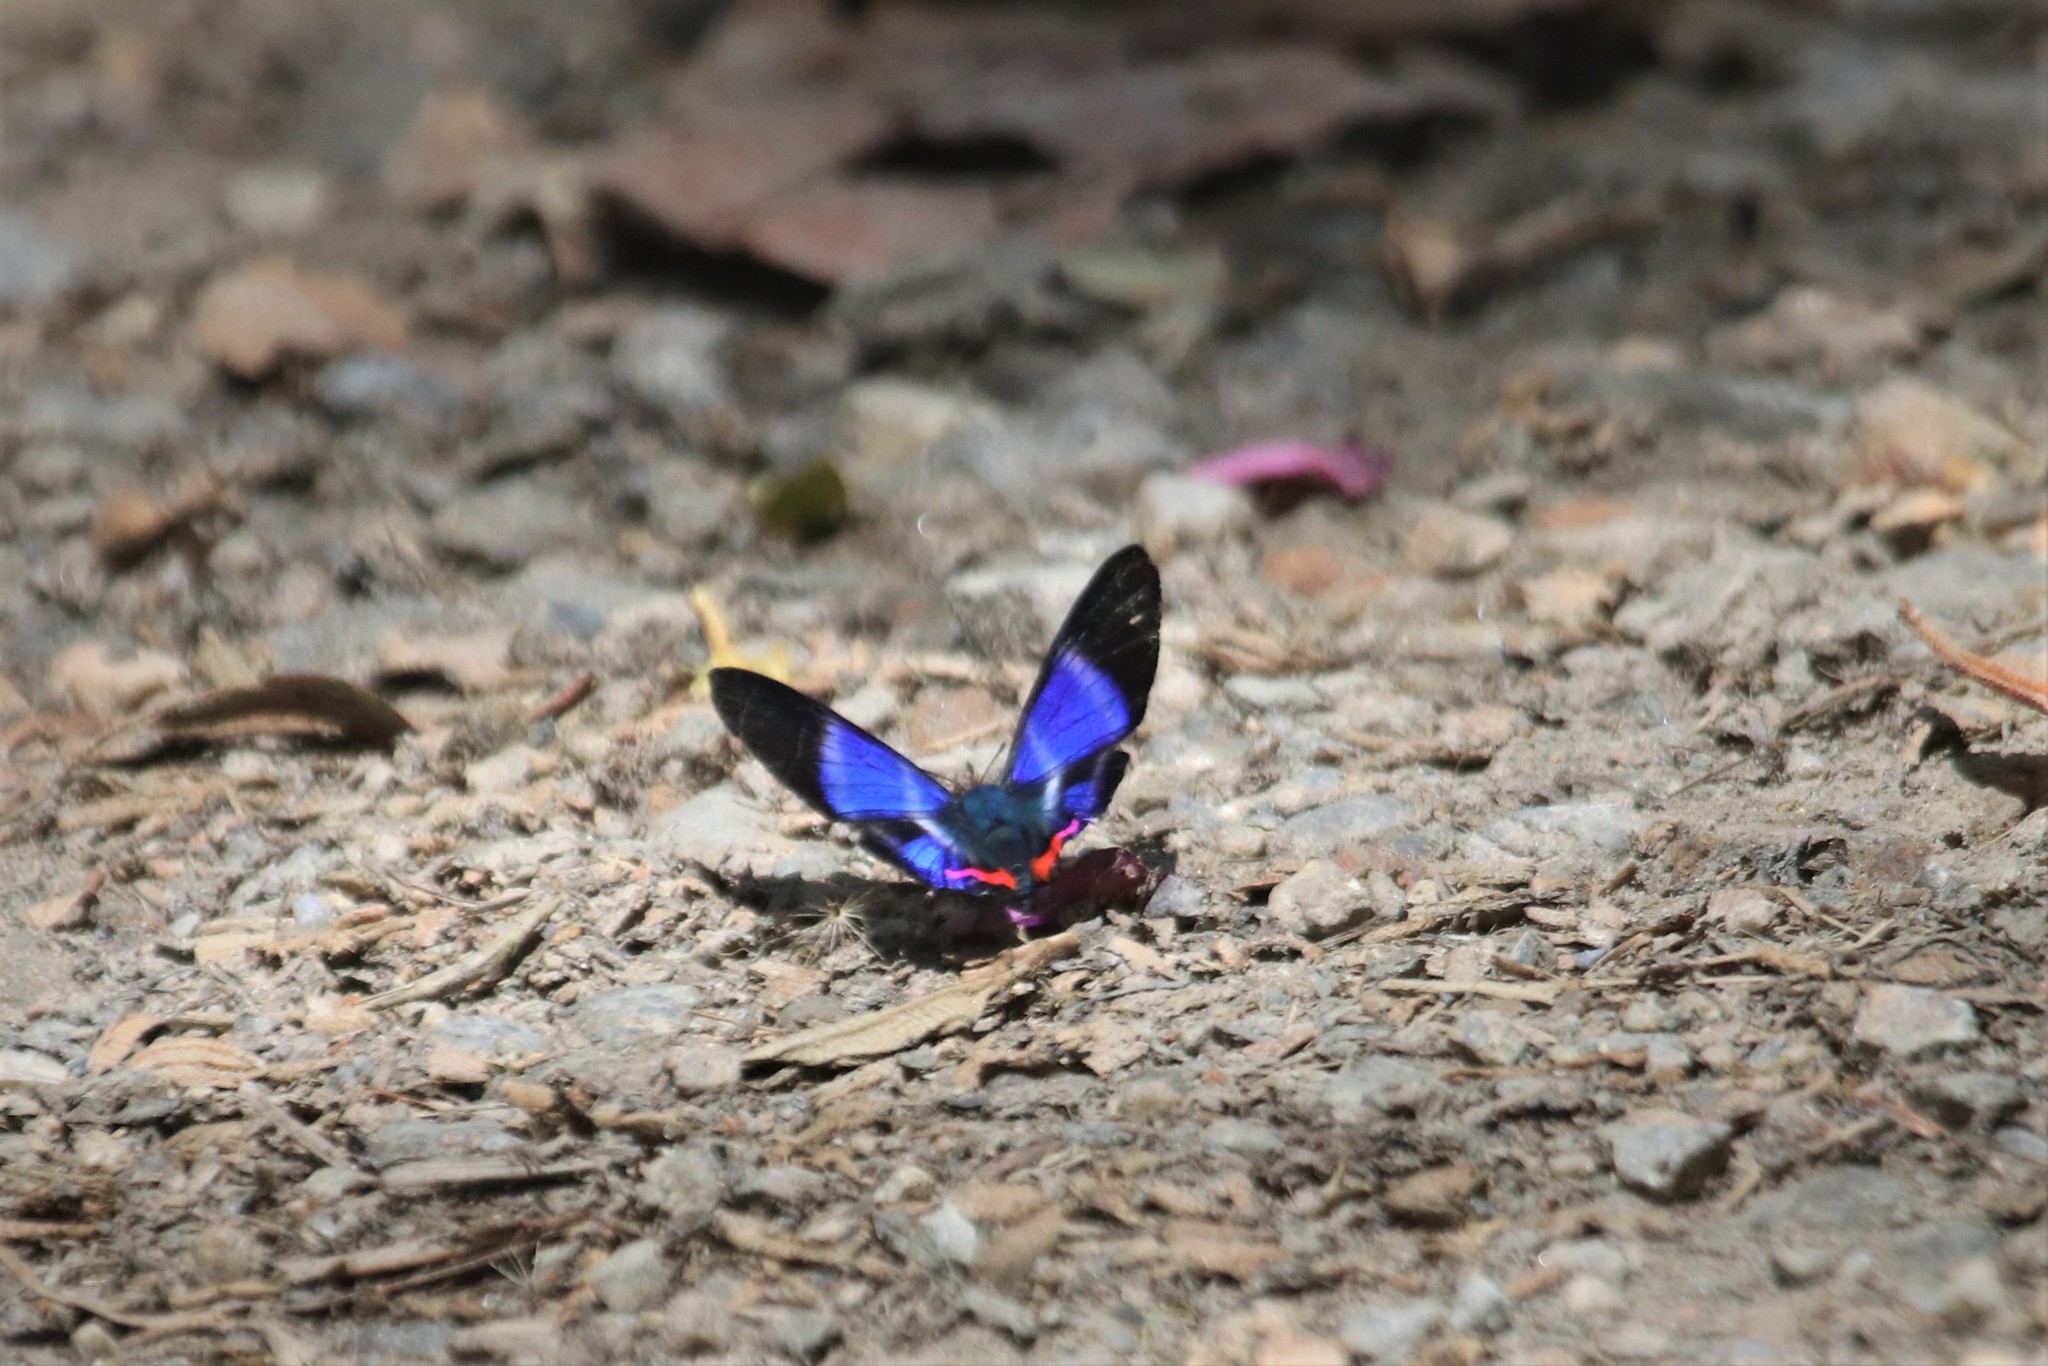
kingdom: Animalia
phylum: Arthropoda
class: Insecta
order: Lepidoptera
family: Riodinidae
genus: Rhetus
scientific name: Rhetus dysonii
